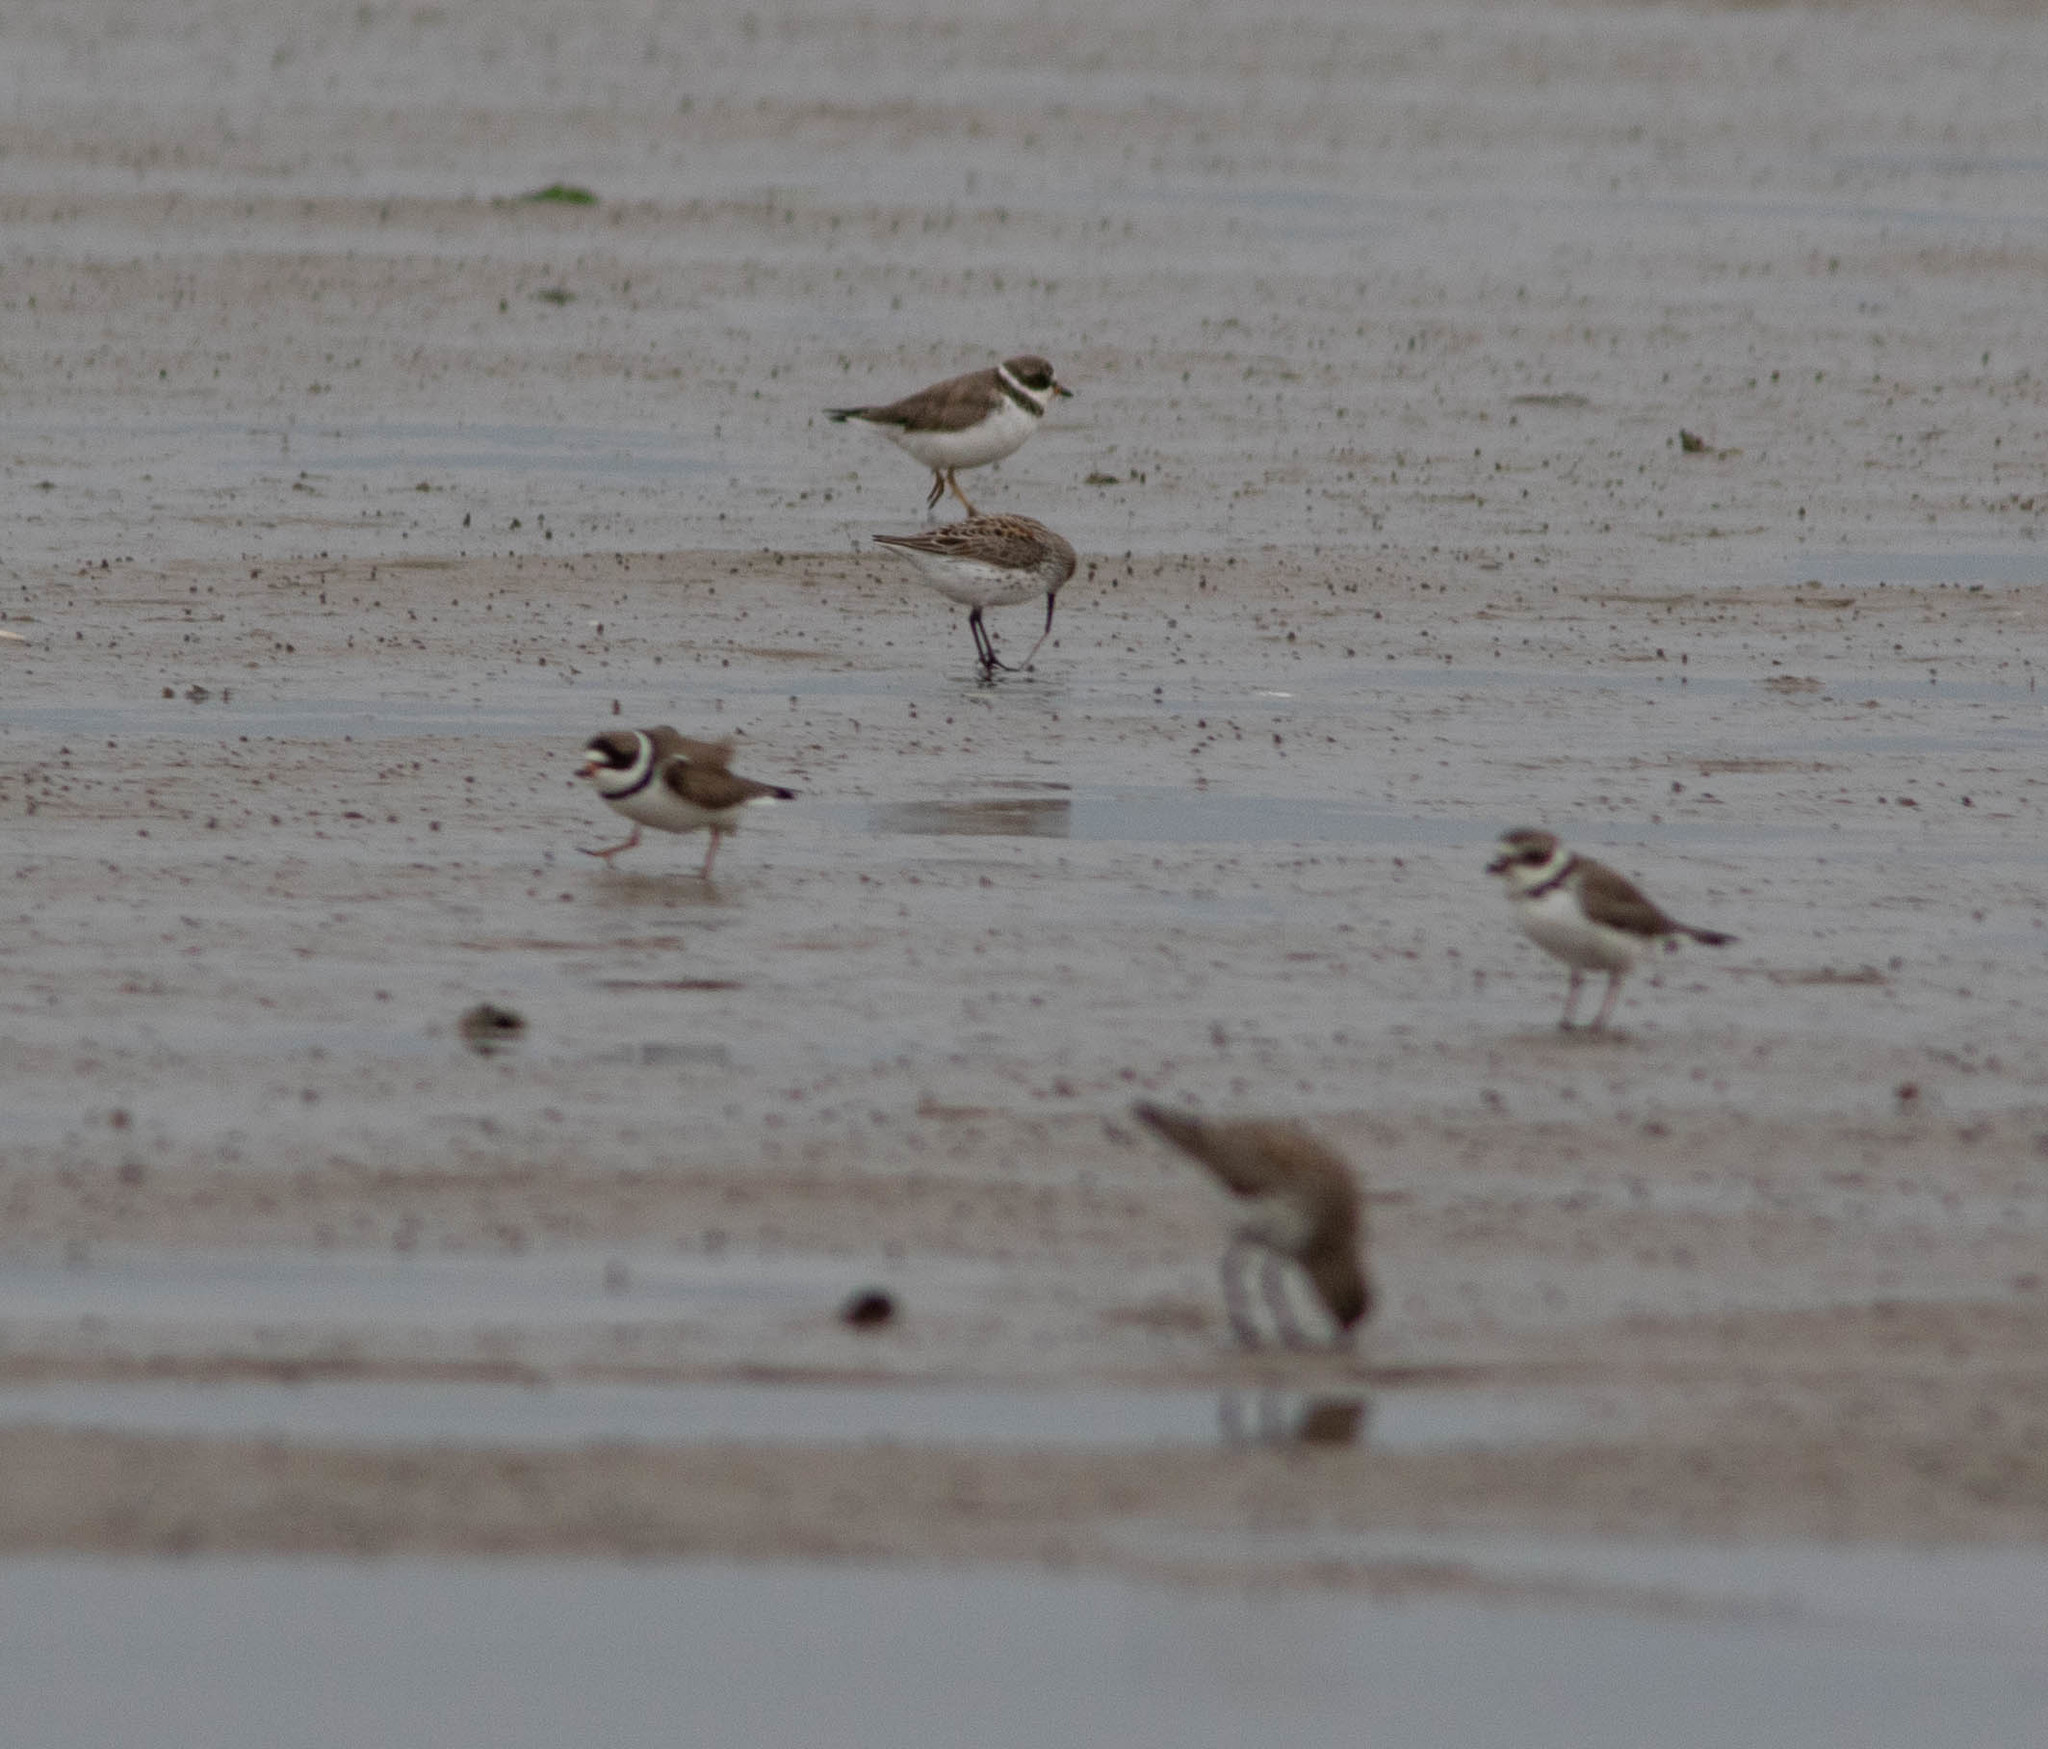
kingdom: Animalia
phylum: Chordata
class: Aves
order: Charadriiformes
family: Charadriidae
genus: Charadrius
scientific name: Charadrius semipalmatus
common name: Semipalmated plover
